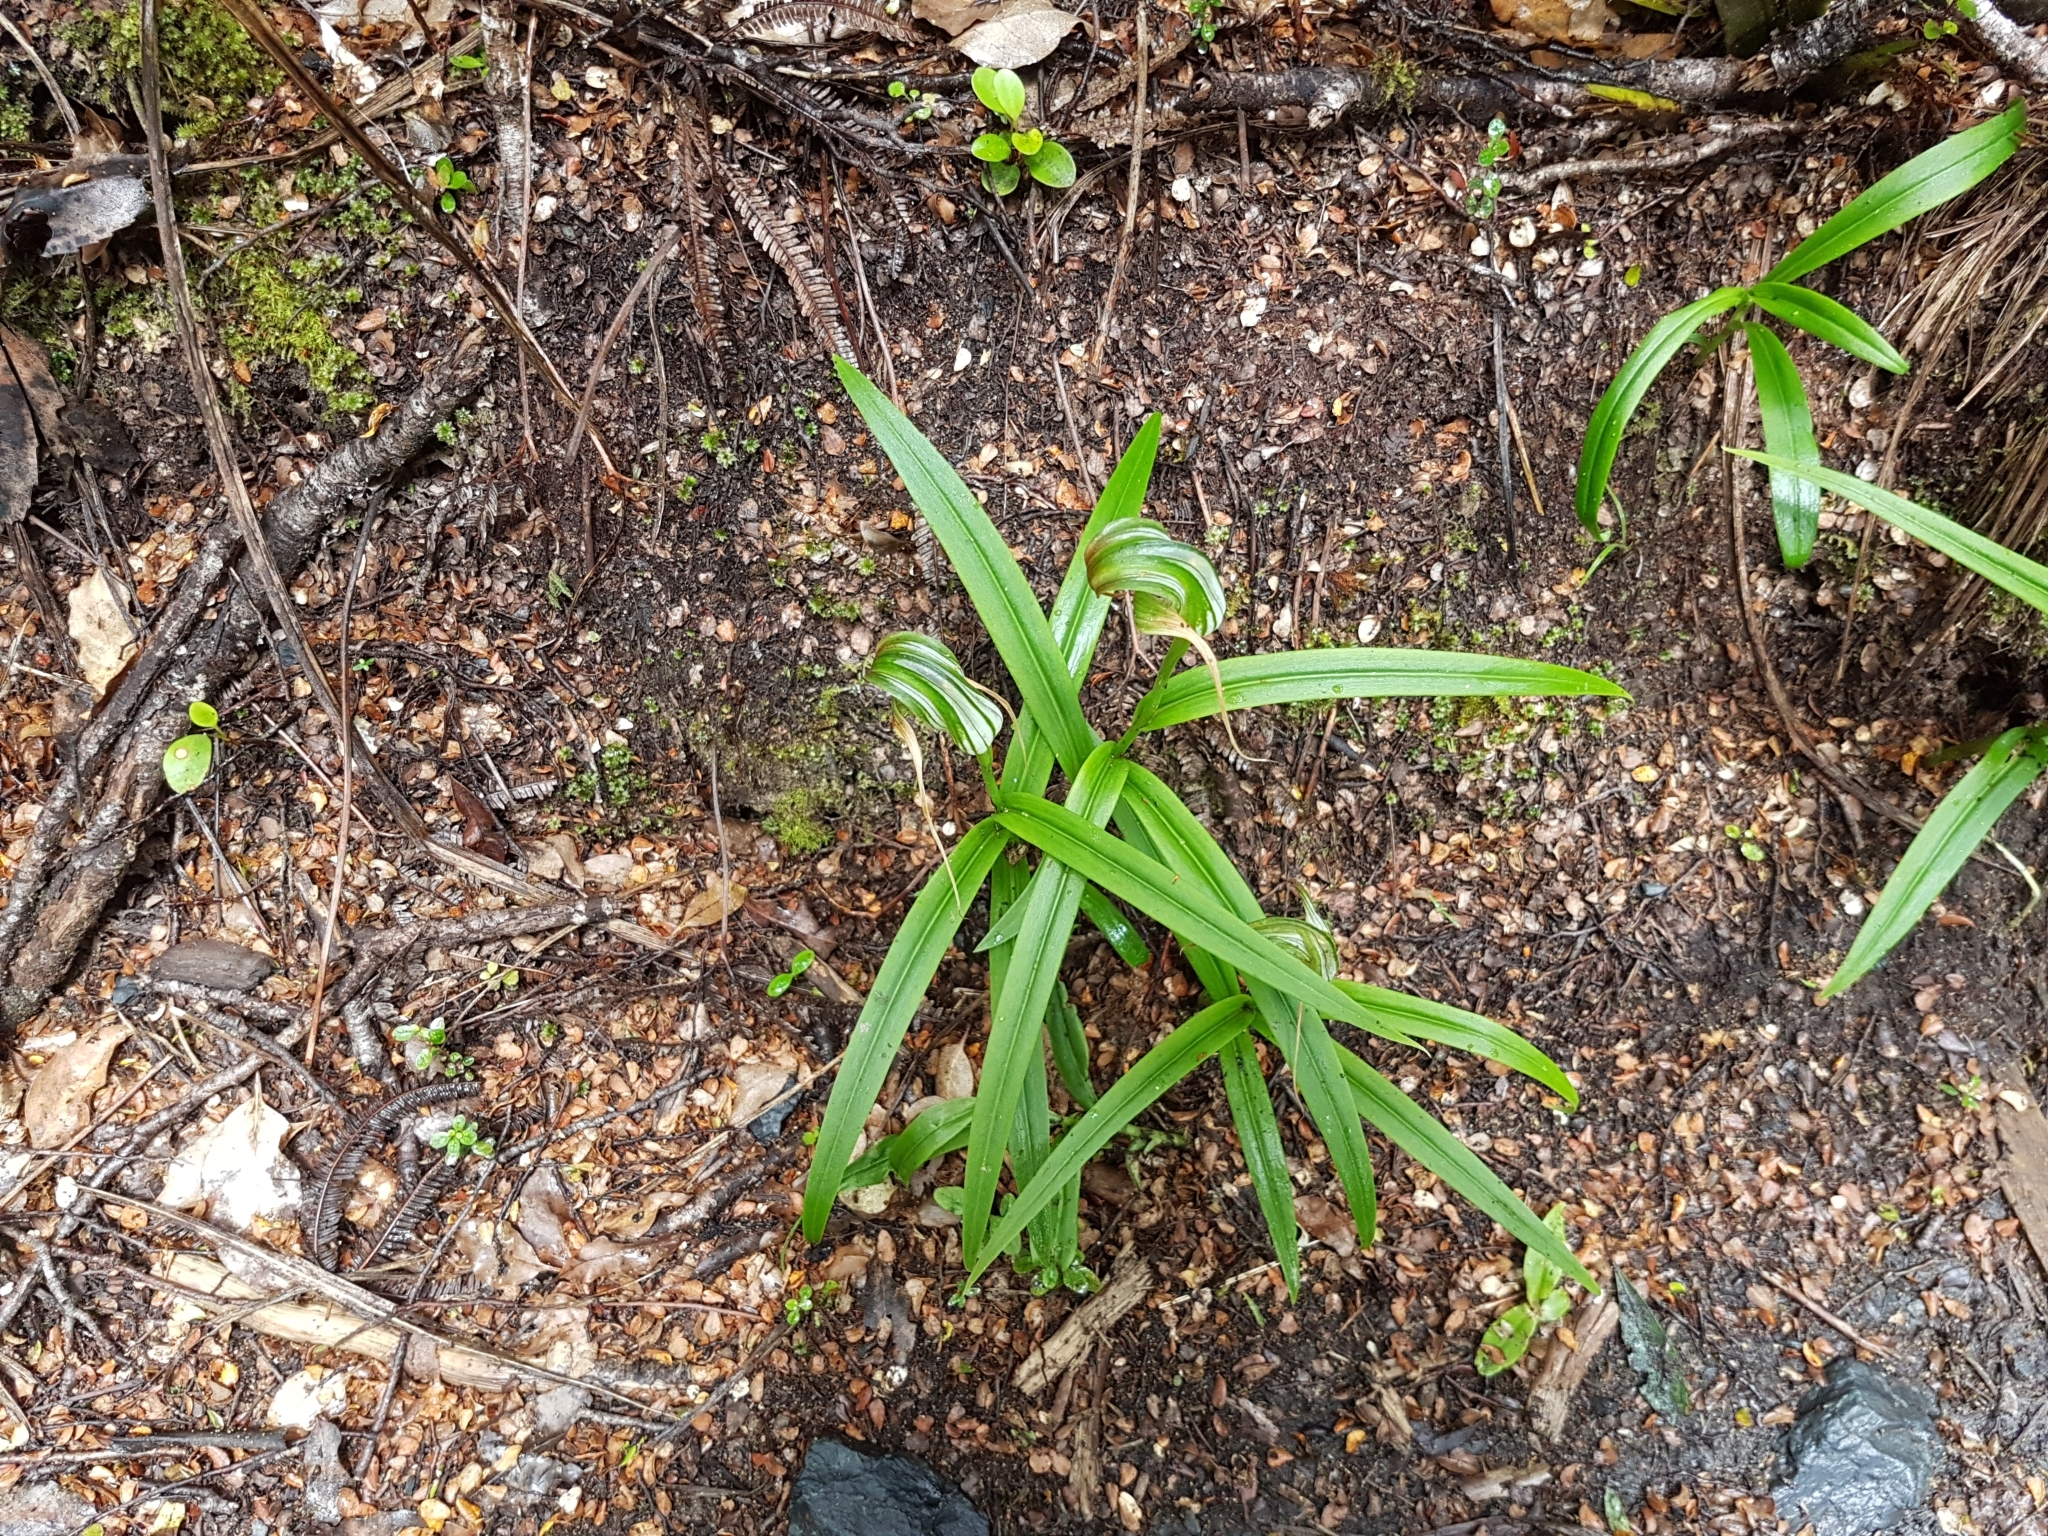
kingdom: Plantae
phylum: Tracheophyta
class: Liliopsida
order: Asparagales
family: Orchidaceae
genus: Pterostylis
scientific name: Pterostylis patens
